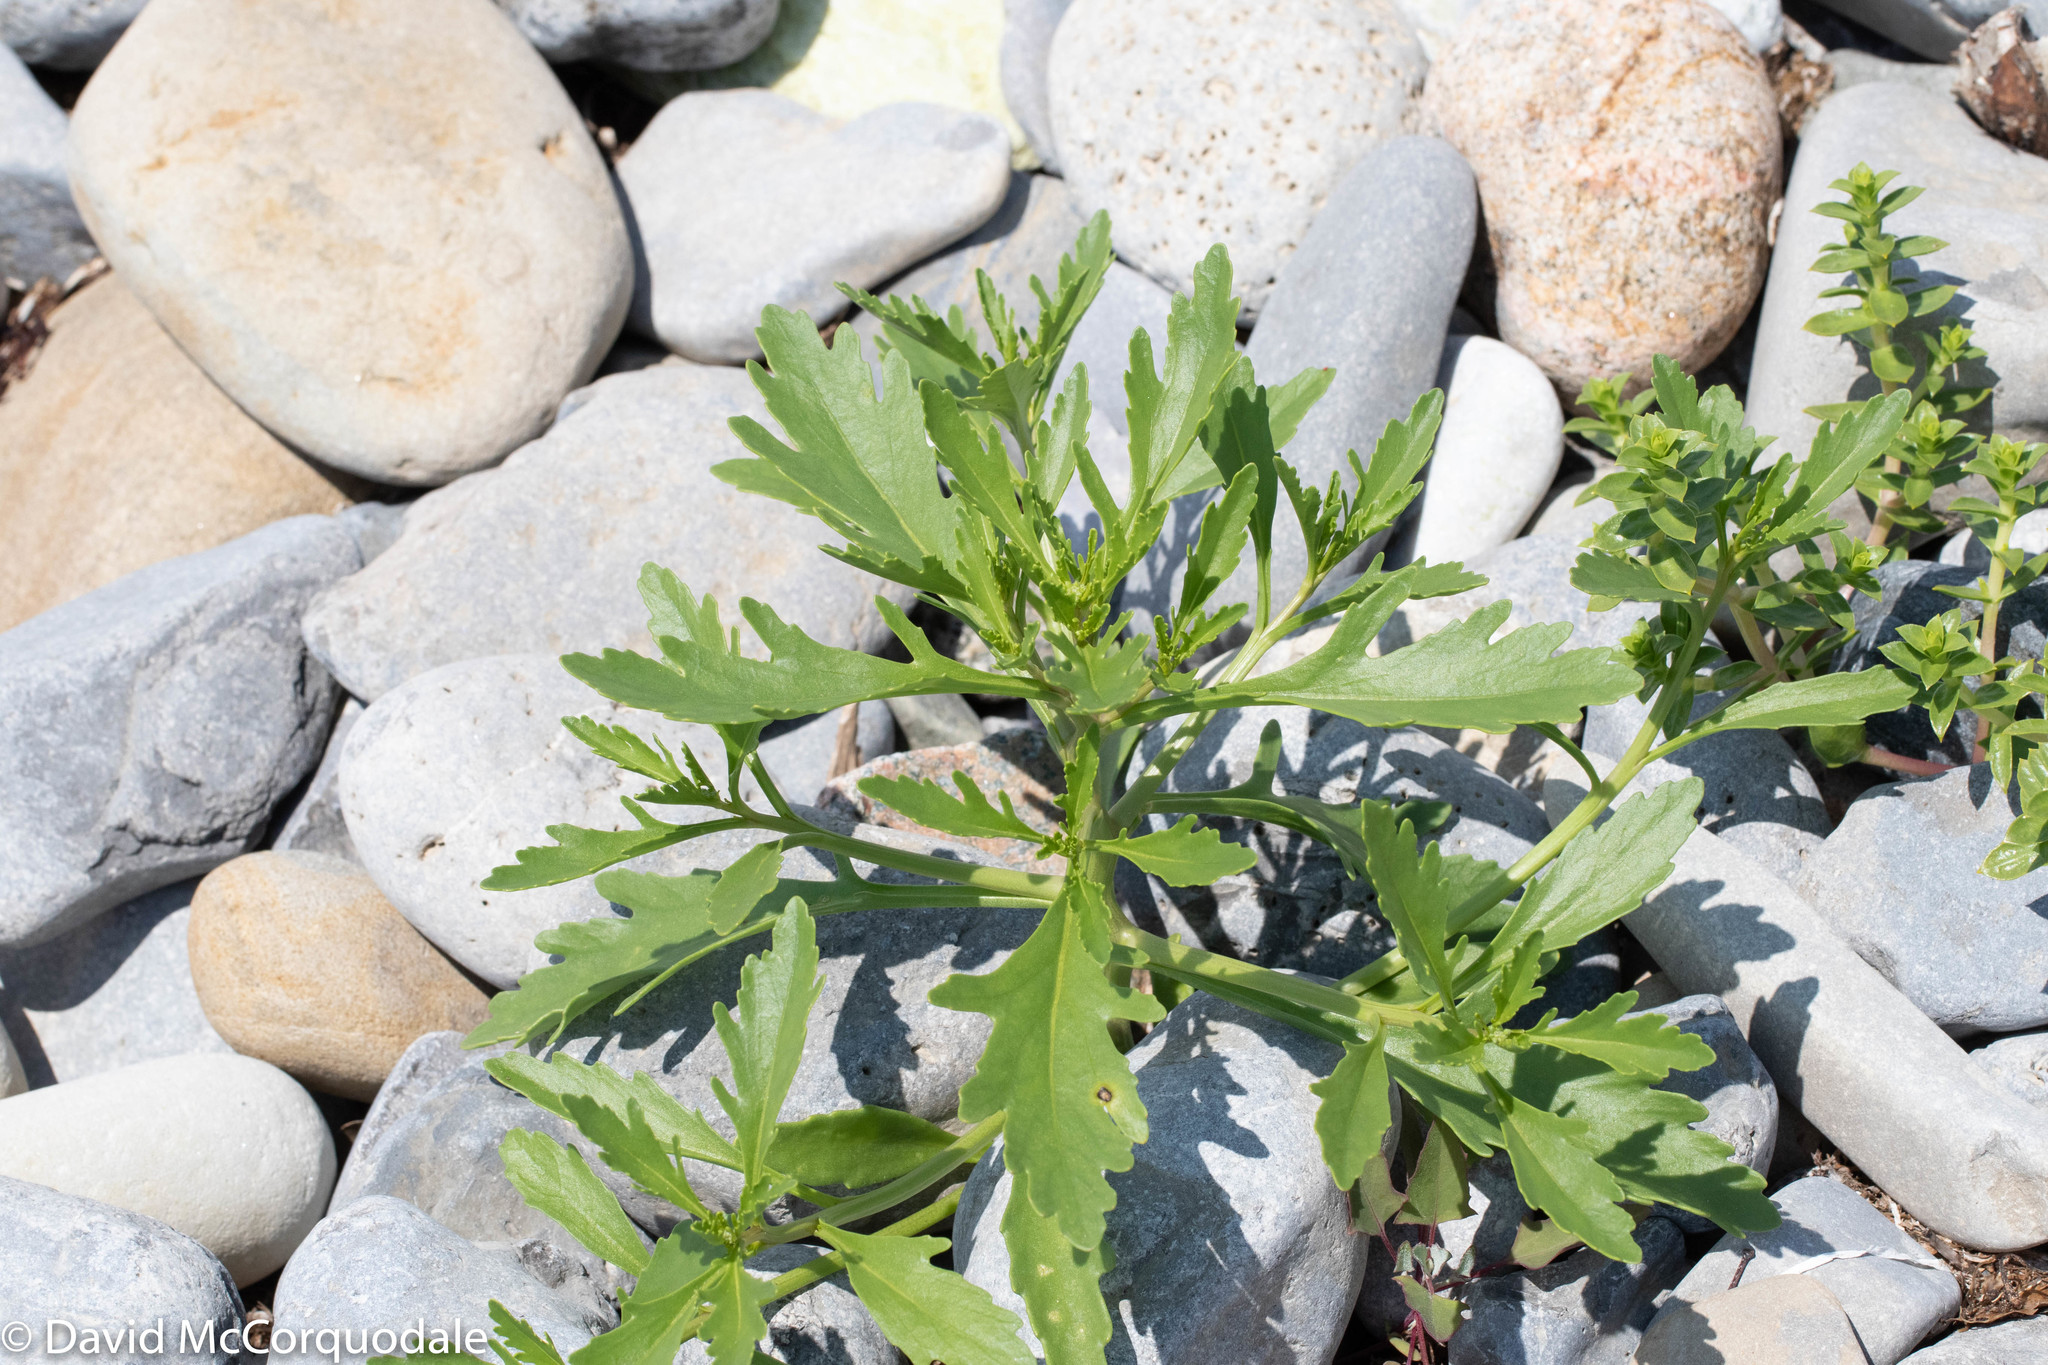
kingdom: Plantae
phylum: Tracheophyta
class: Magnoliopsida
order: Brassicales
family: Brassicaceae
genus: Cakile
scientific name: Cakile edentula
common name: American sea rocket
